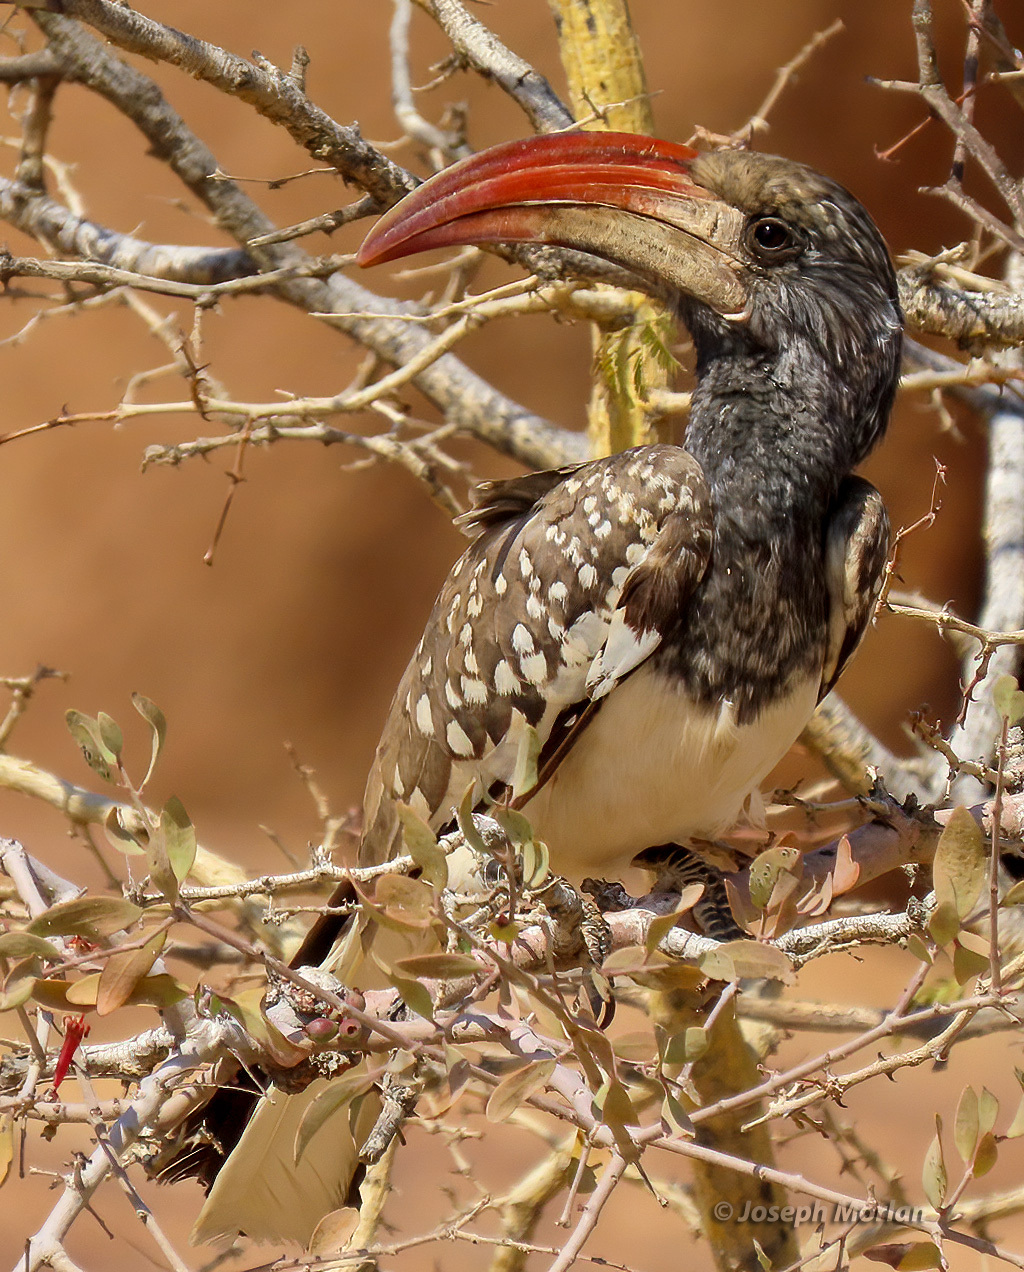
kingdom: Animalia
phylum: Chordata
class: Aves
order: Bucerotiformes
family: Bucerotidae
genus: Tockus
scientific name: Tockus monteiri
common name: Monteiro's hornbill
